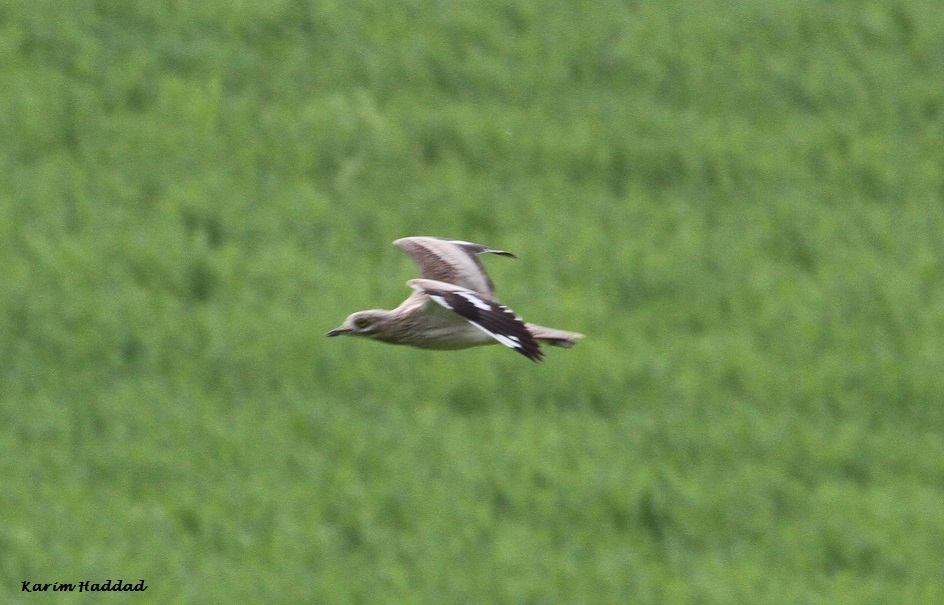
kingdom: Animalia
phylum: Chordata
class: Aves
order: Charadriiformes
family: Burhinidae
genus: Burhinus
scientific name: Burhinus oedicnemus
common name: Eurasian stone-curlew
